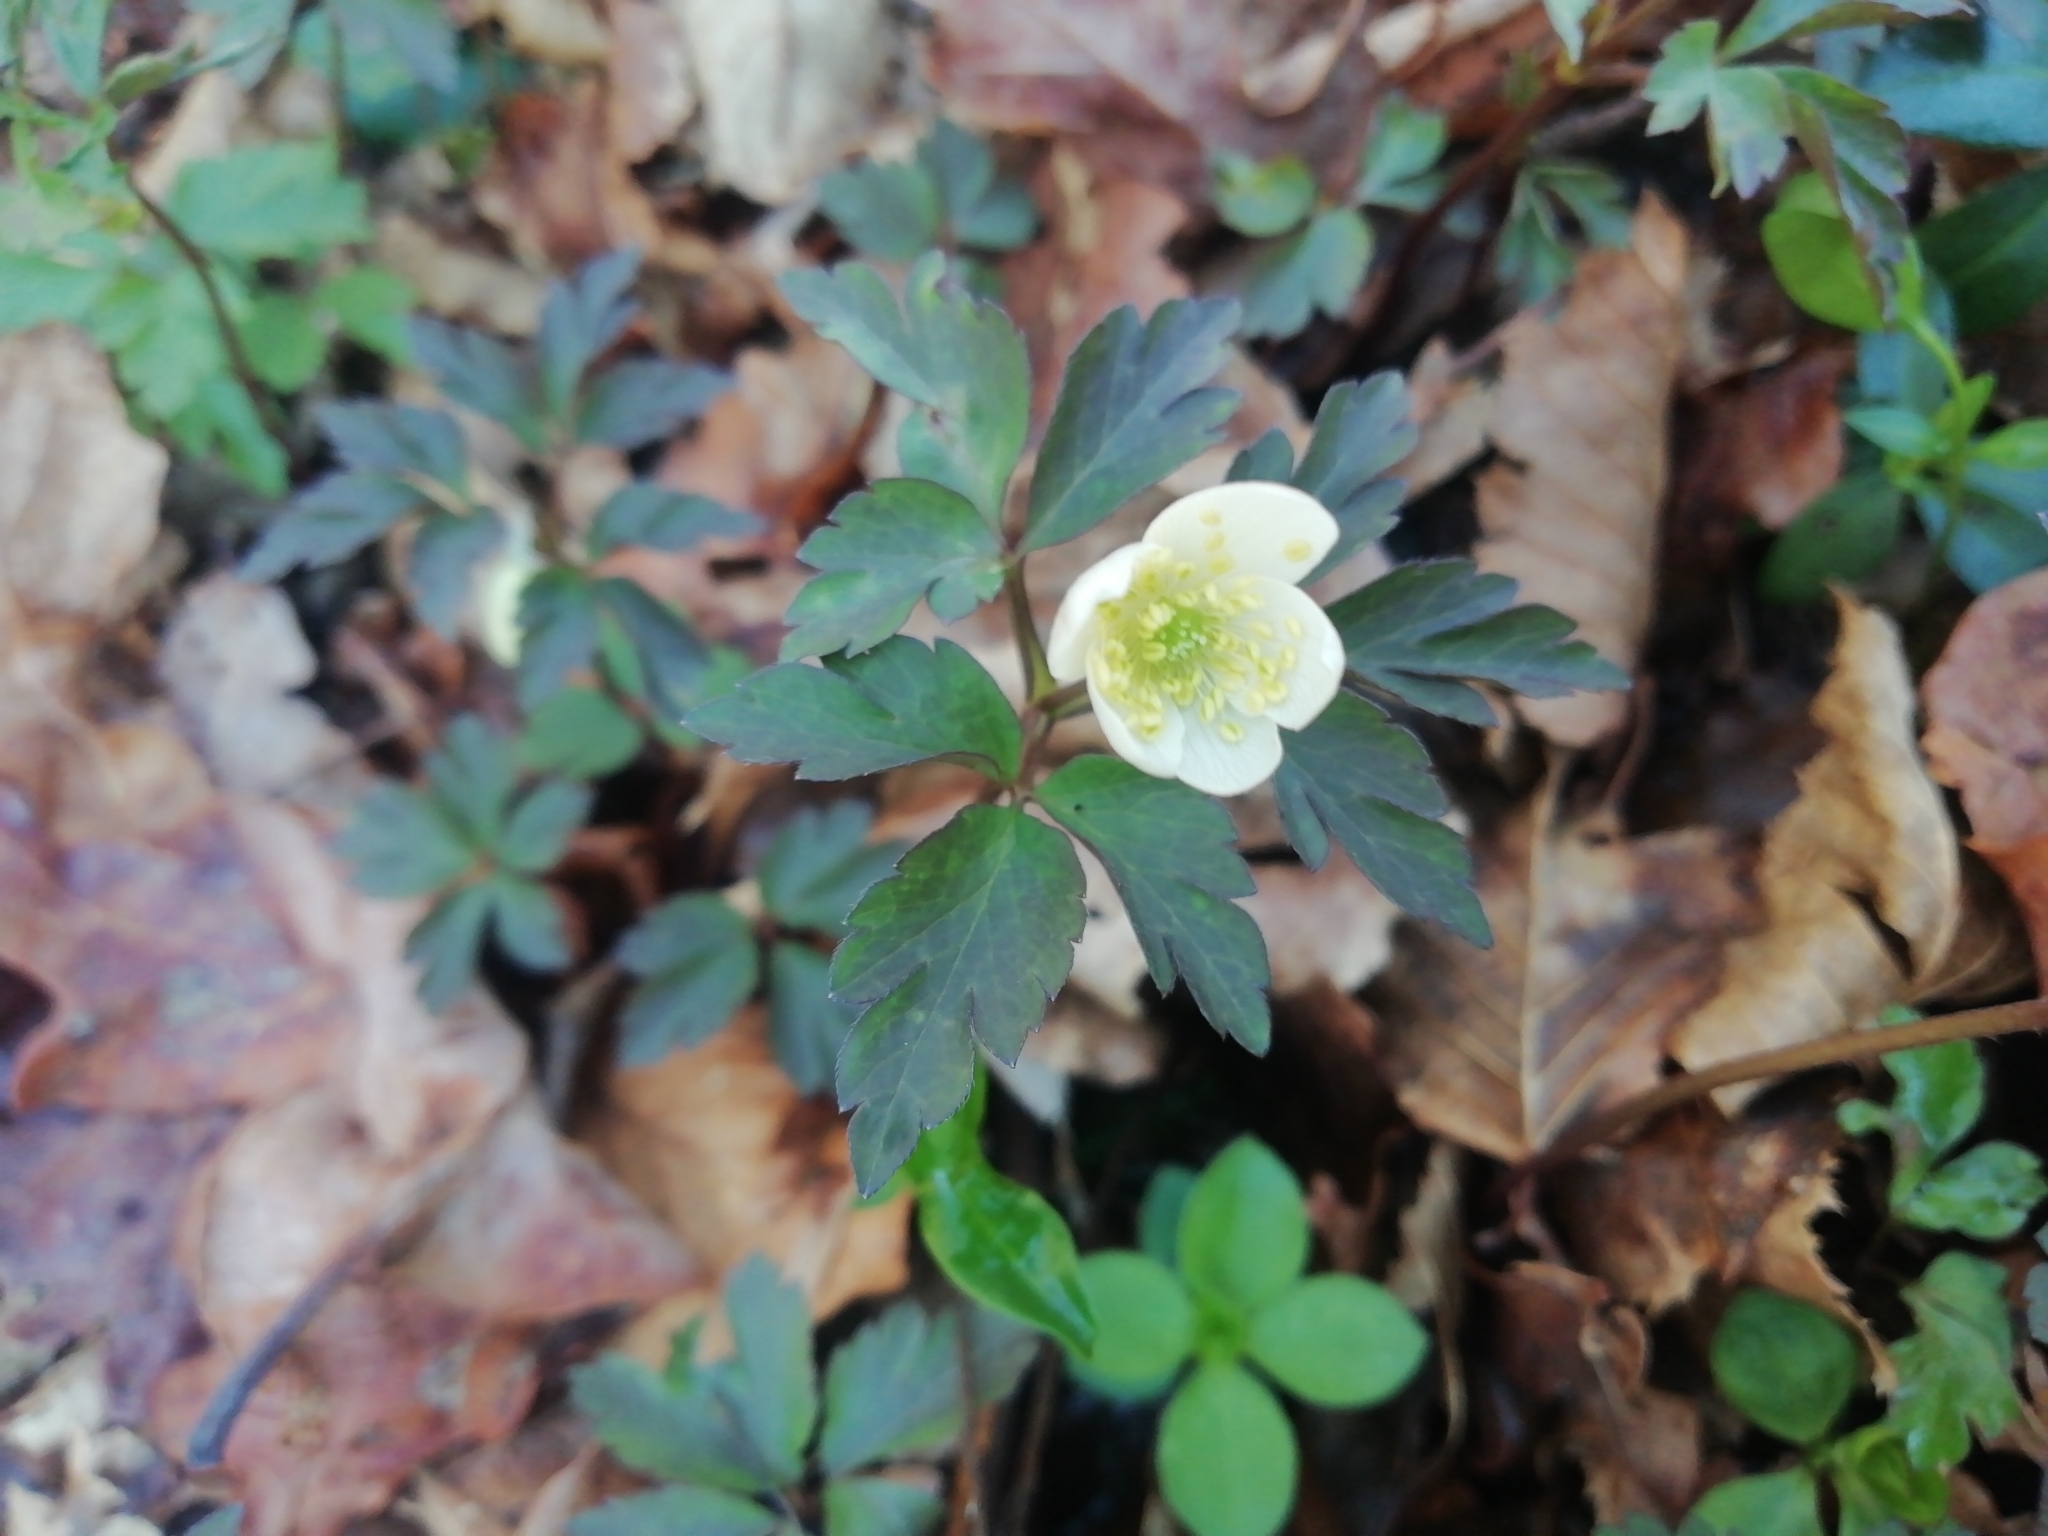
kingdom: Plantae
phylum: Tracheophyta
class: Magnoliopsida
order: Ranunculales
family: Ranunculaceae
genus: Anemone
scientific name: Anemone nemorosa
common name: Wood anemone
